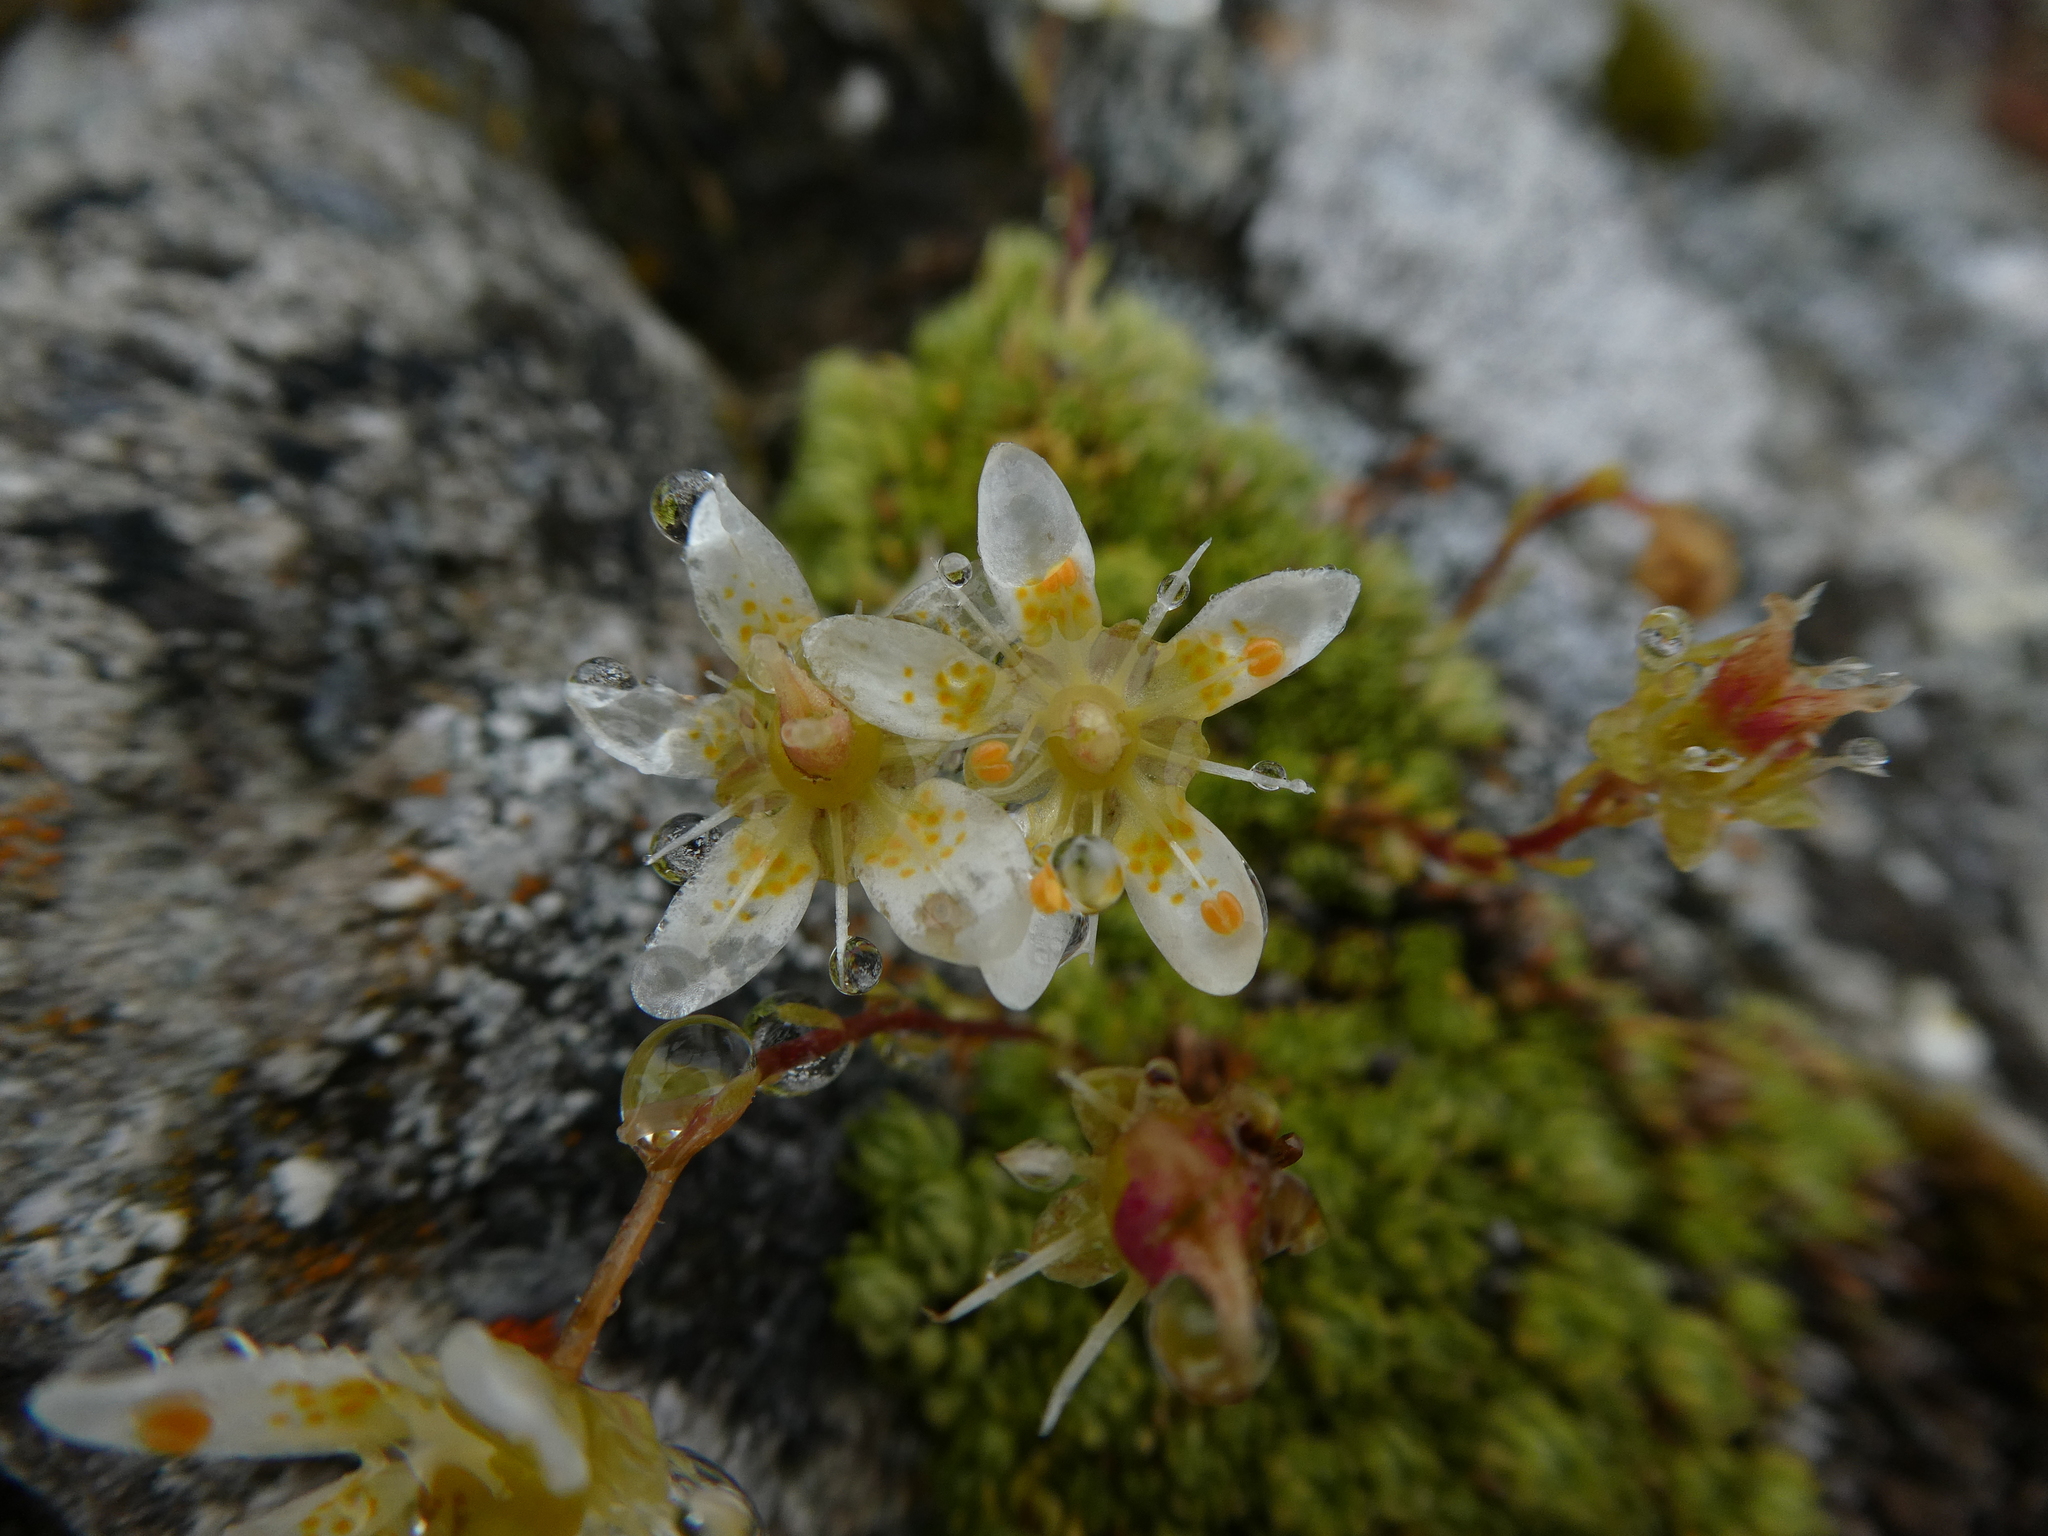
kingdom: Plantae
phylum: Tracheophyta
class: Magnoliopsida
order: Saxifragales
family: Saxifragaceae
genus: Saxifraga
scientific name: Saxifraga bryoides
